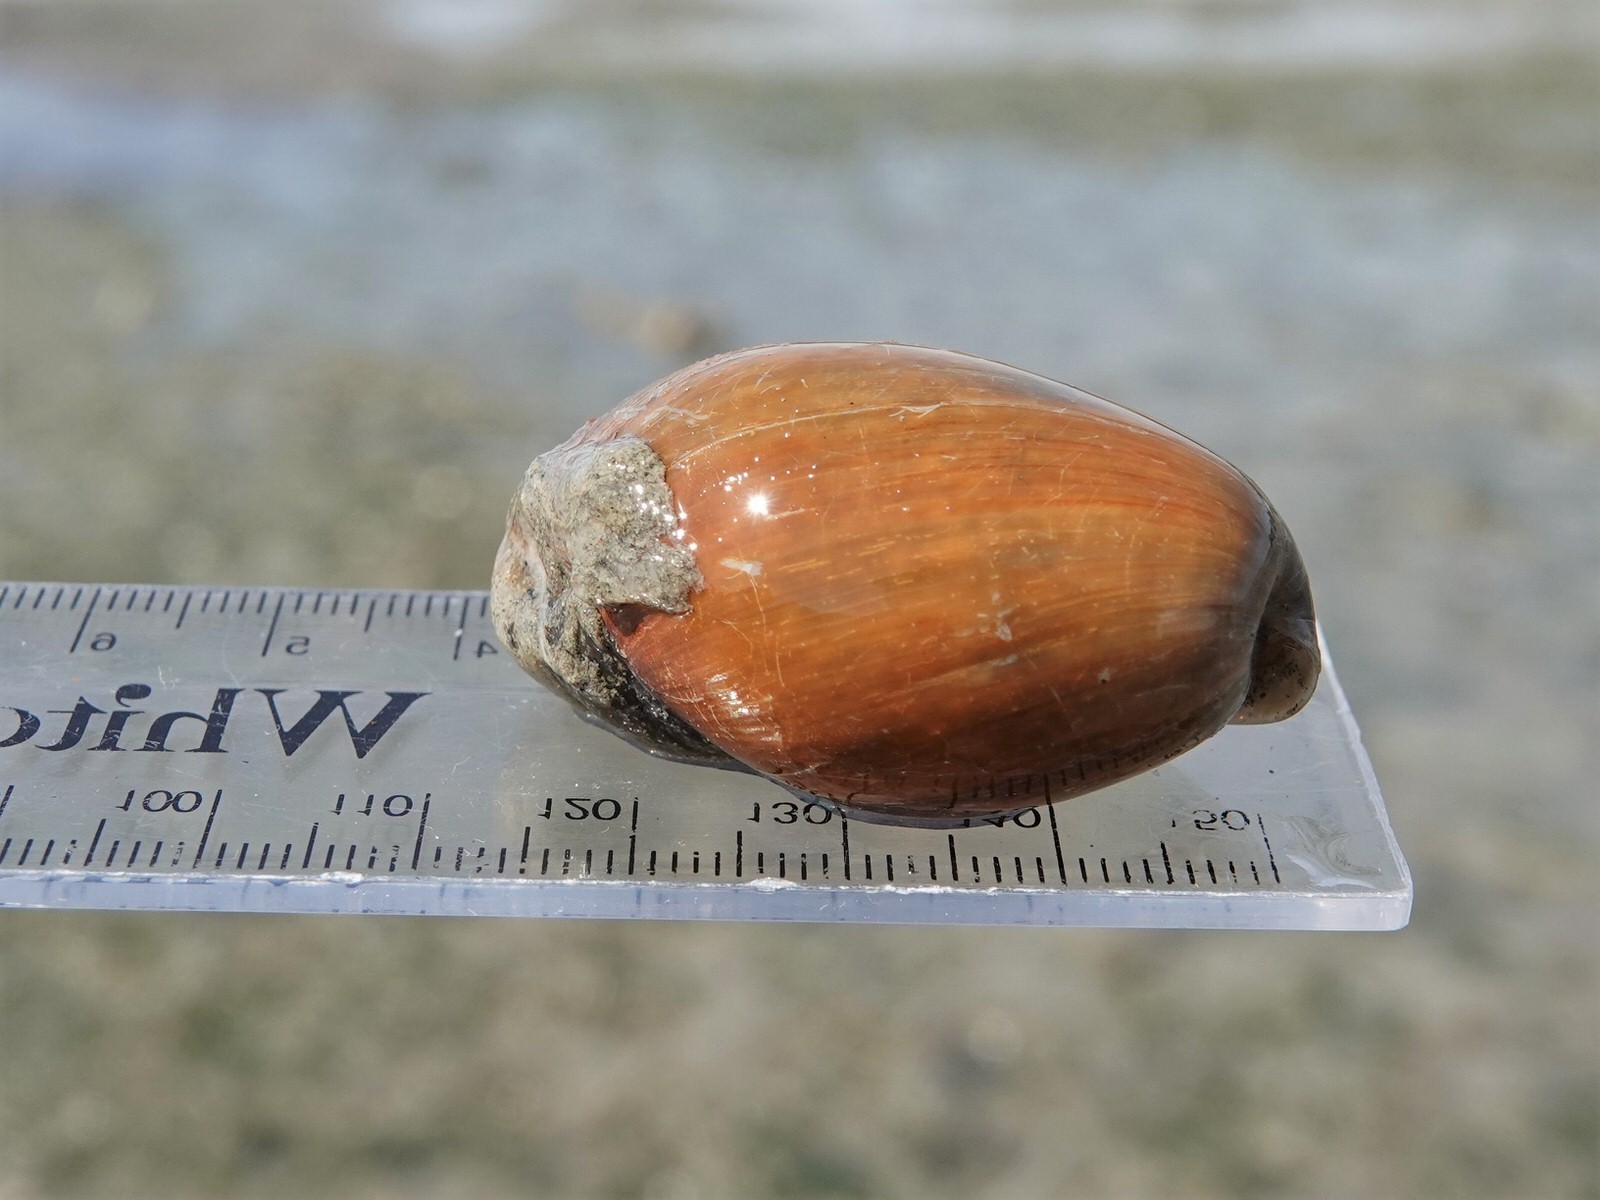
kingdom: Animalia
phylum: Mollusca
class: Gastropoda
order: Cephalaspidea
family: Bullidae
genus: Bulla
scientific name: Bulla quoyii
